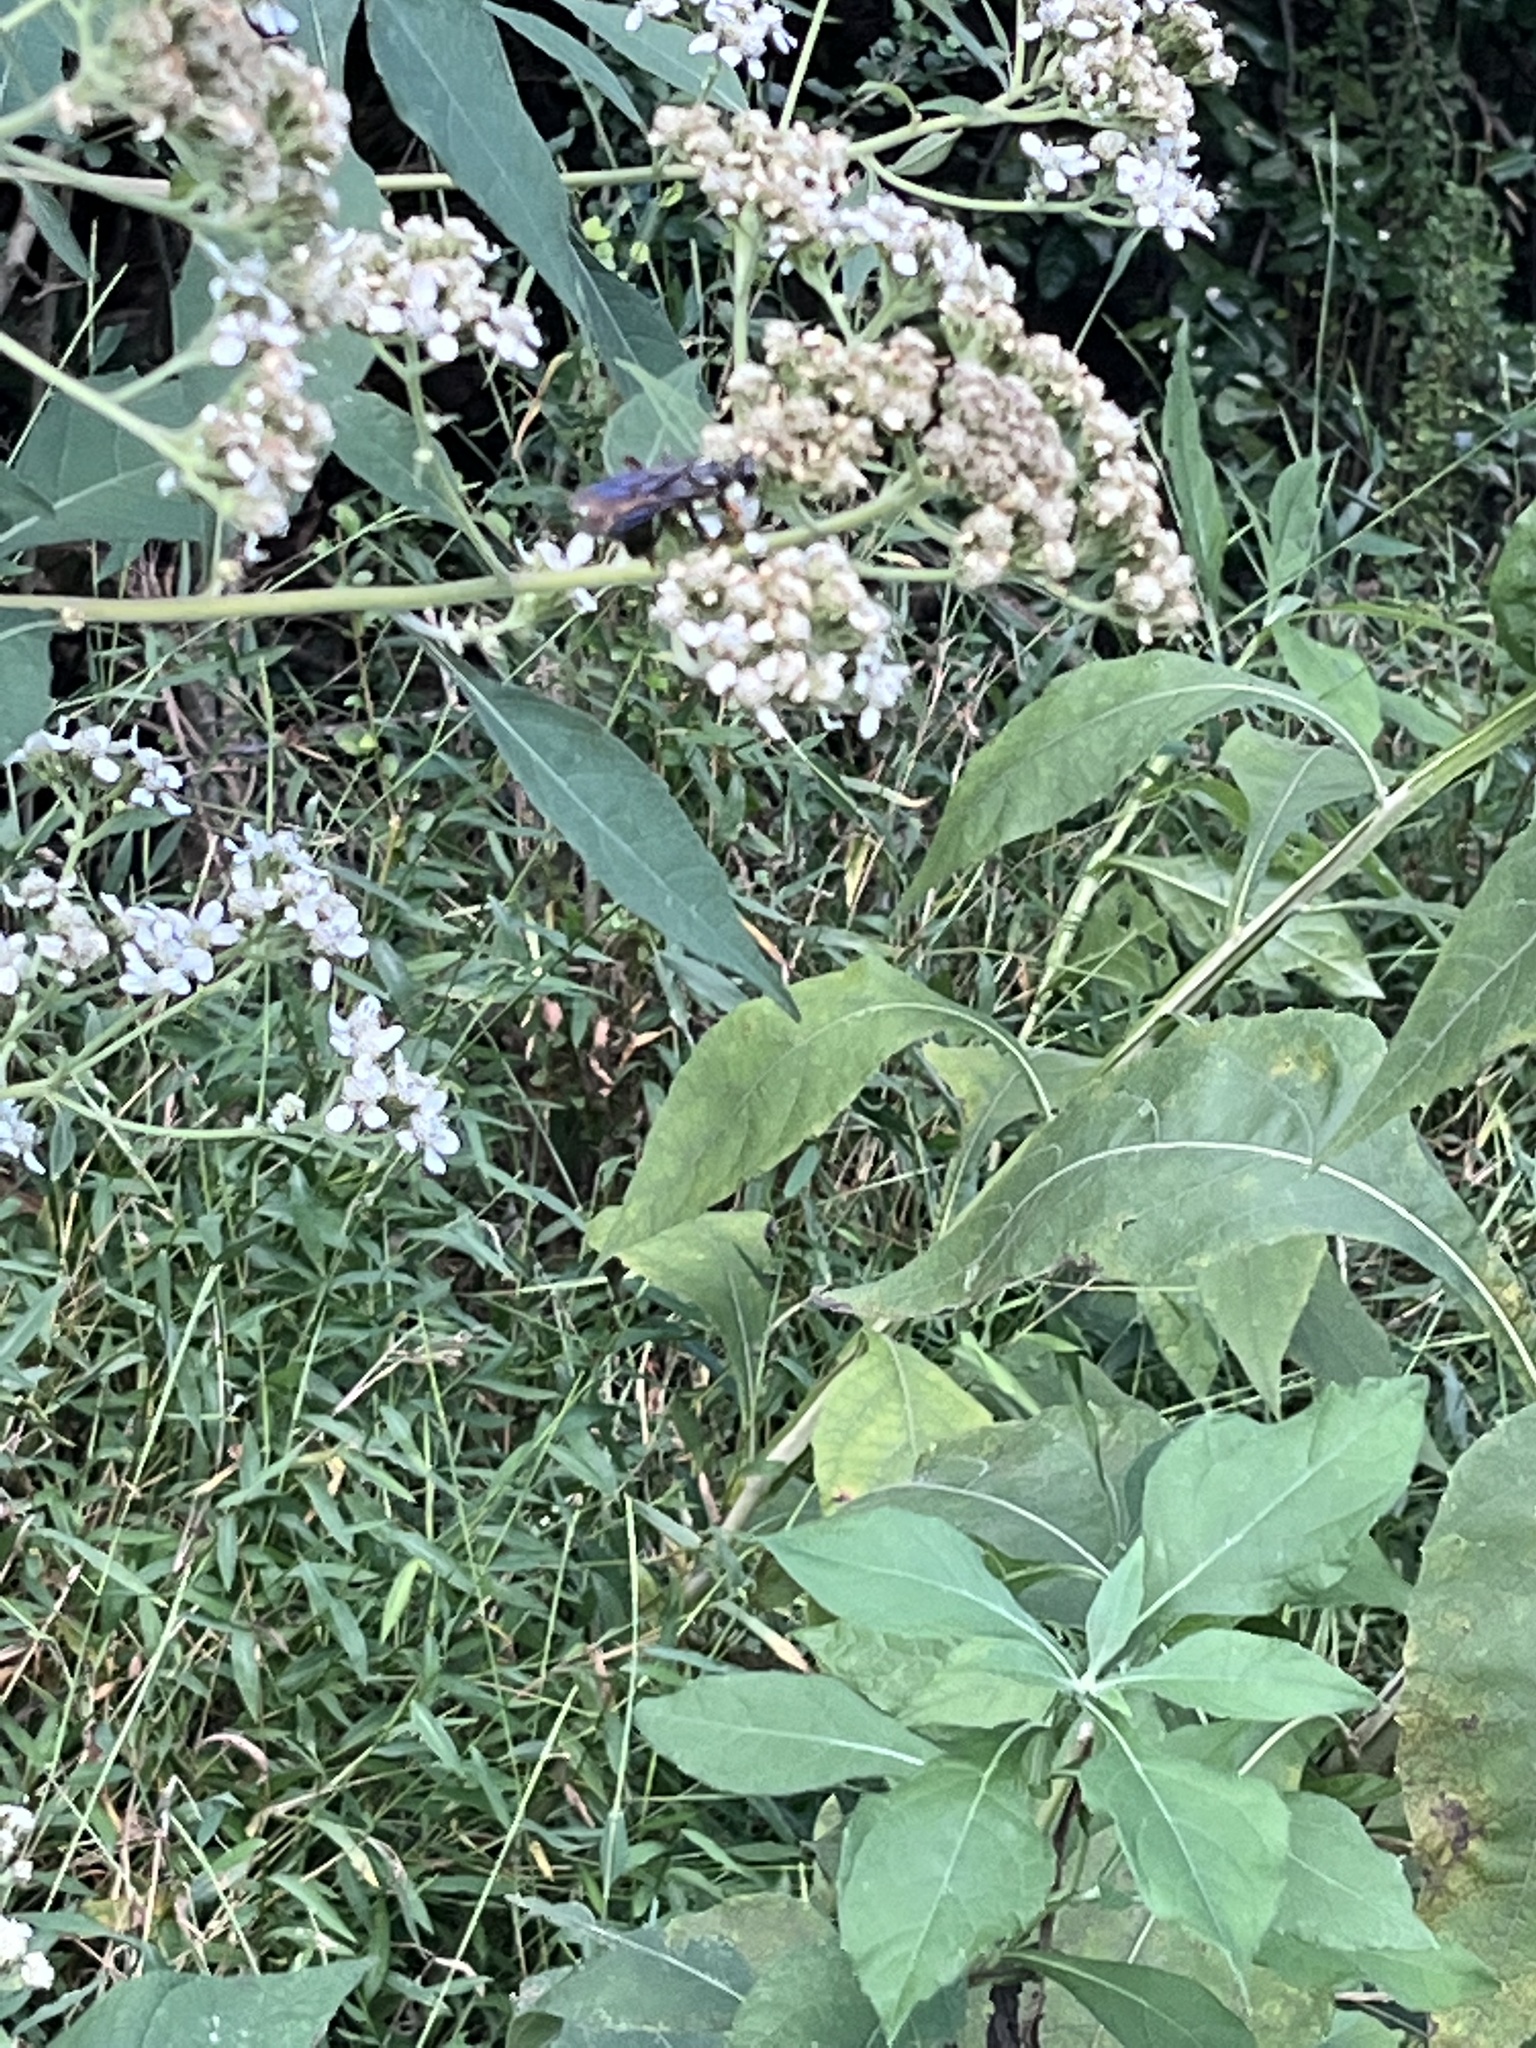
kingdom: Animalia
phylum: Arthropoda
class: Insecta
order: Hymenoptera
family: Sphecidae
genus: Sphex
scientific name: Sphex nudus
